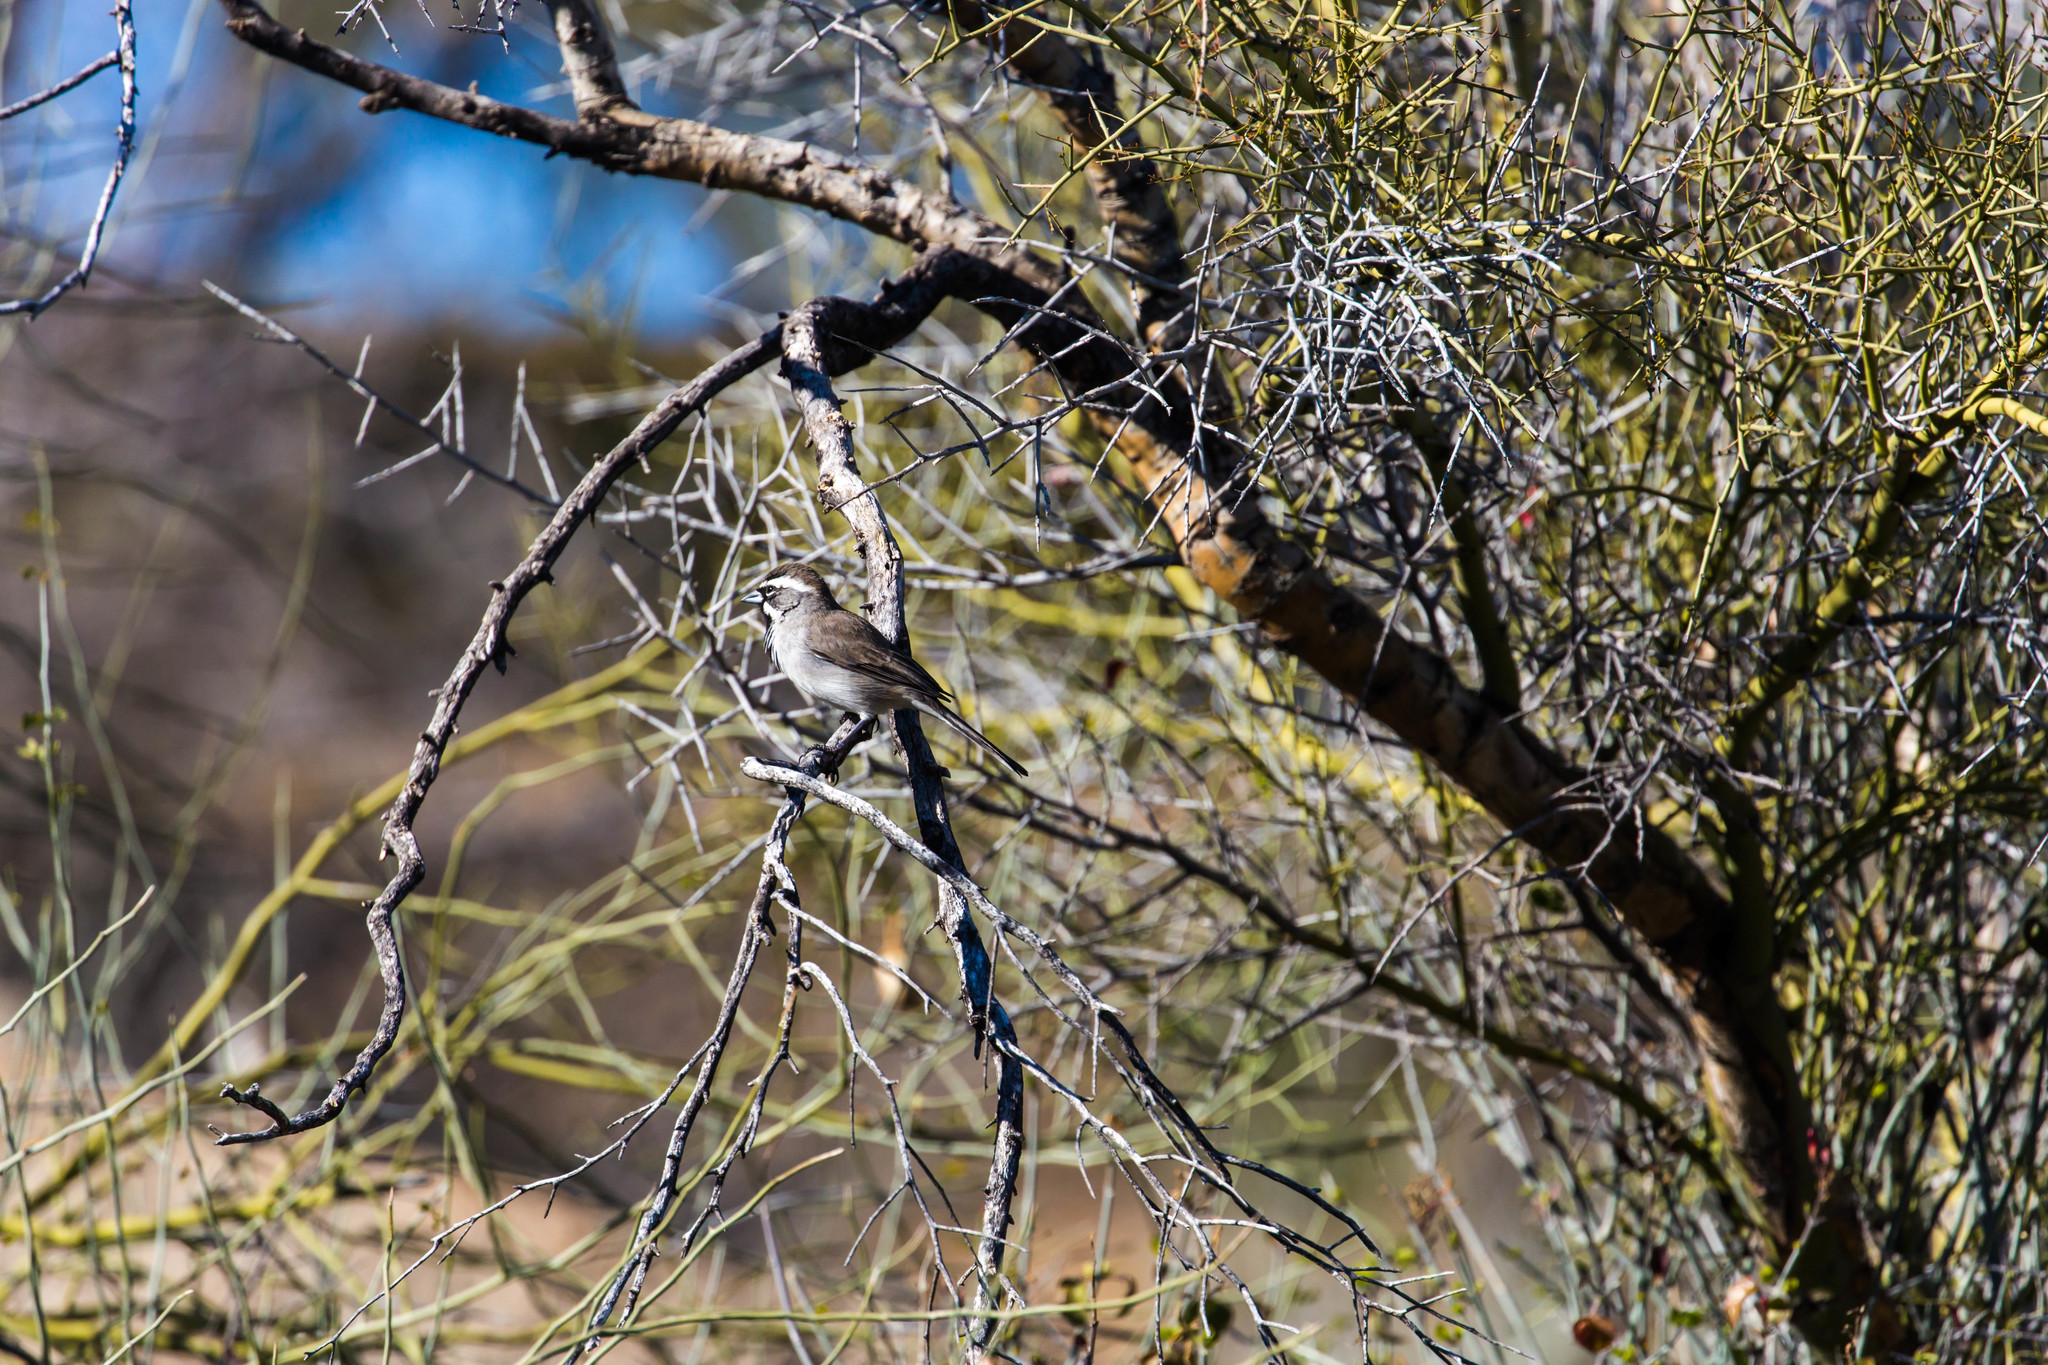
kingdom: Animalia
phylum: Chordata
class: Aves
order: Passeriformes
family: Passerellidae
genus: Amphispiza
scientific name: Amphispiza bilineata
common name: Black-throated sparrow
